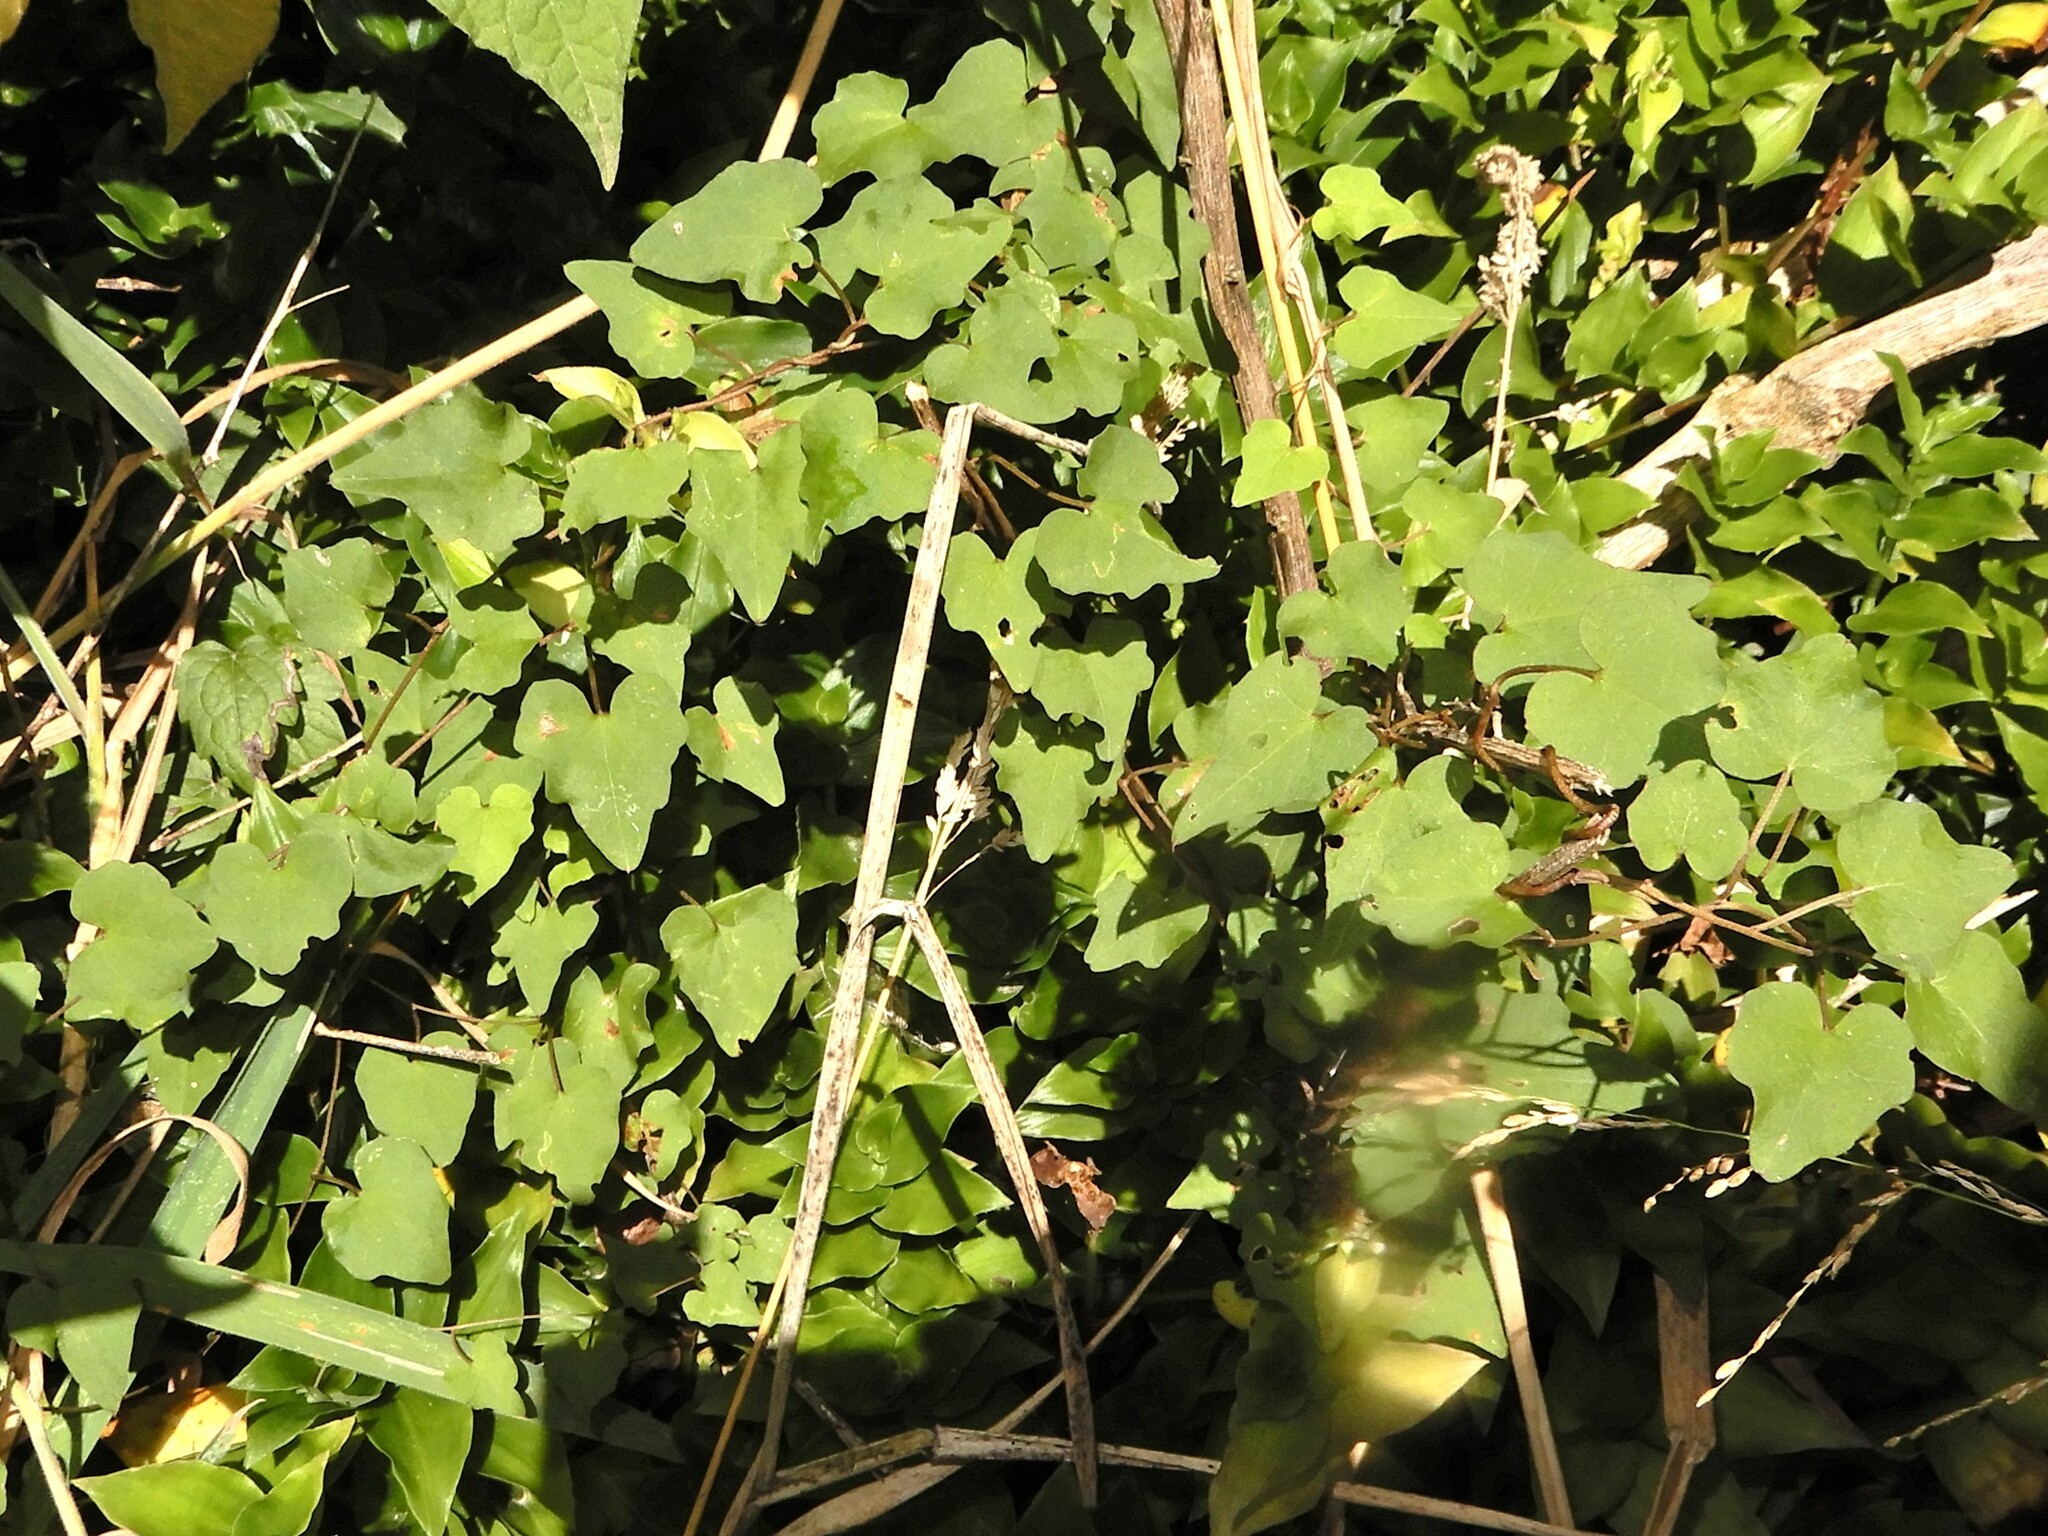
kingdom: Plantae
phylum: Tracheophyta
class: Magnoliopsida
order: Solanales
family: Convolvulaceae
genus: Calystegia
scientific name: Calystegia tuguriorum
